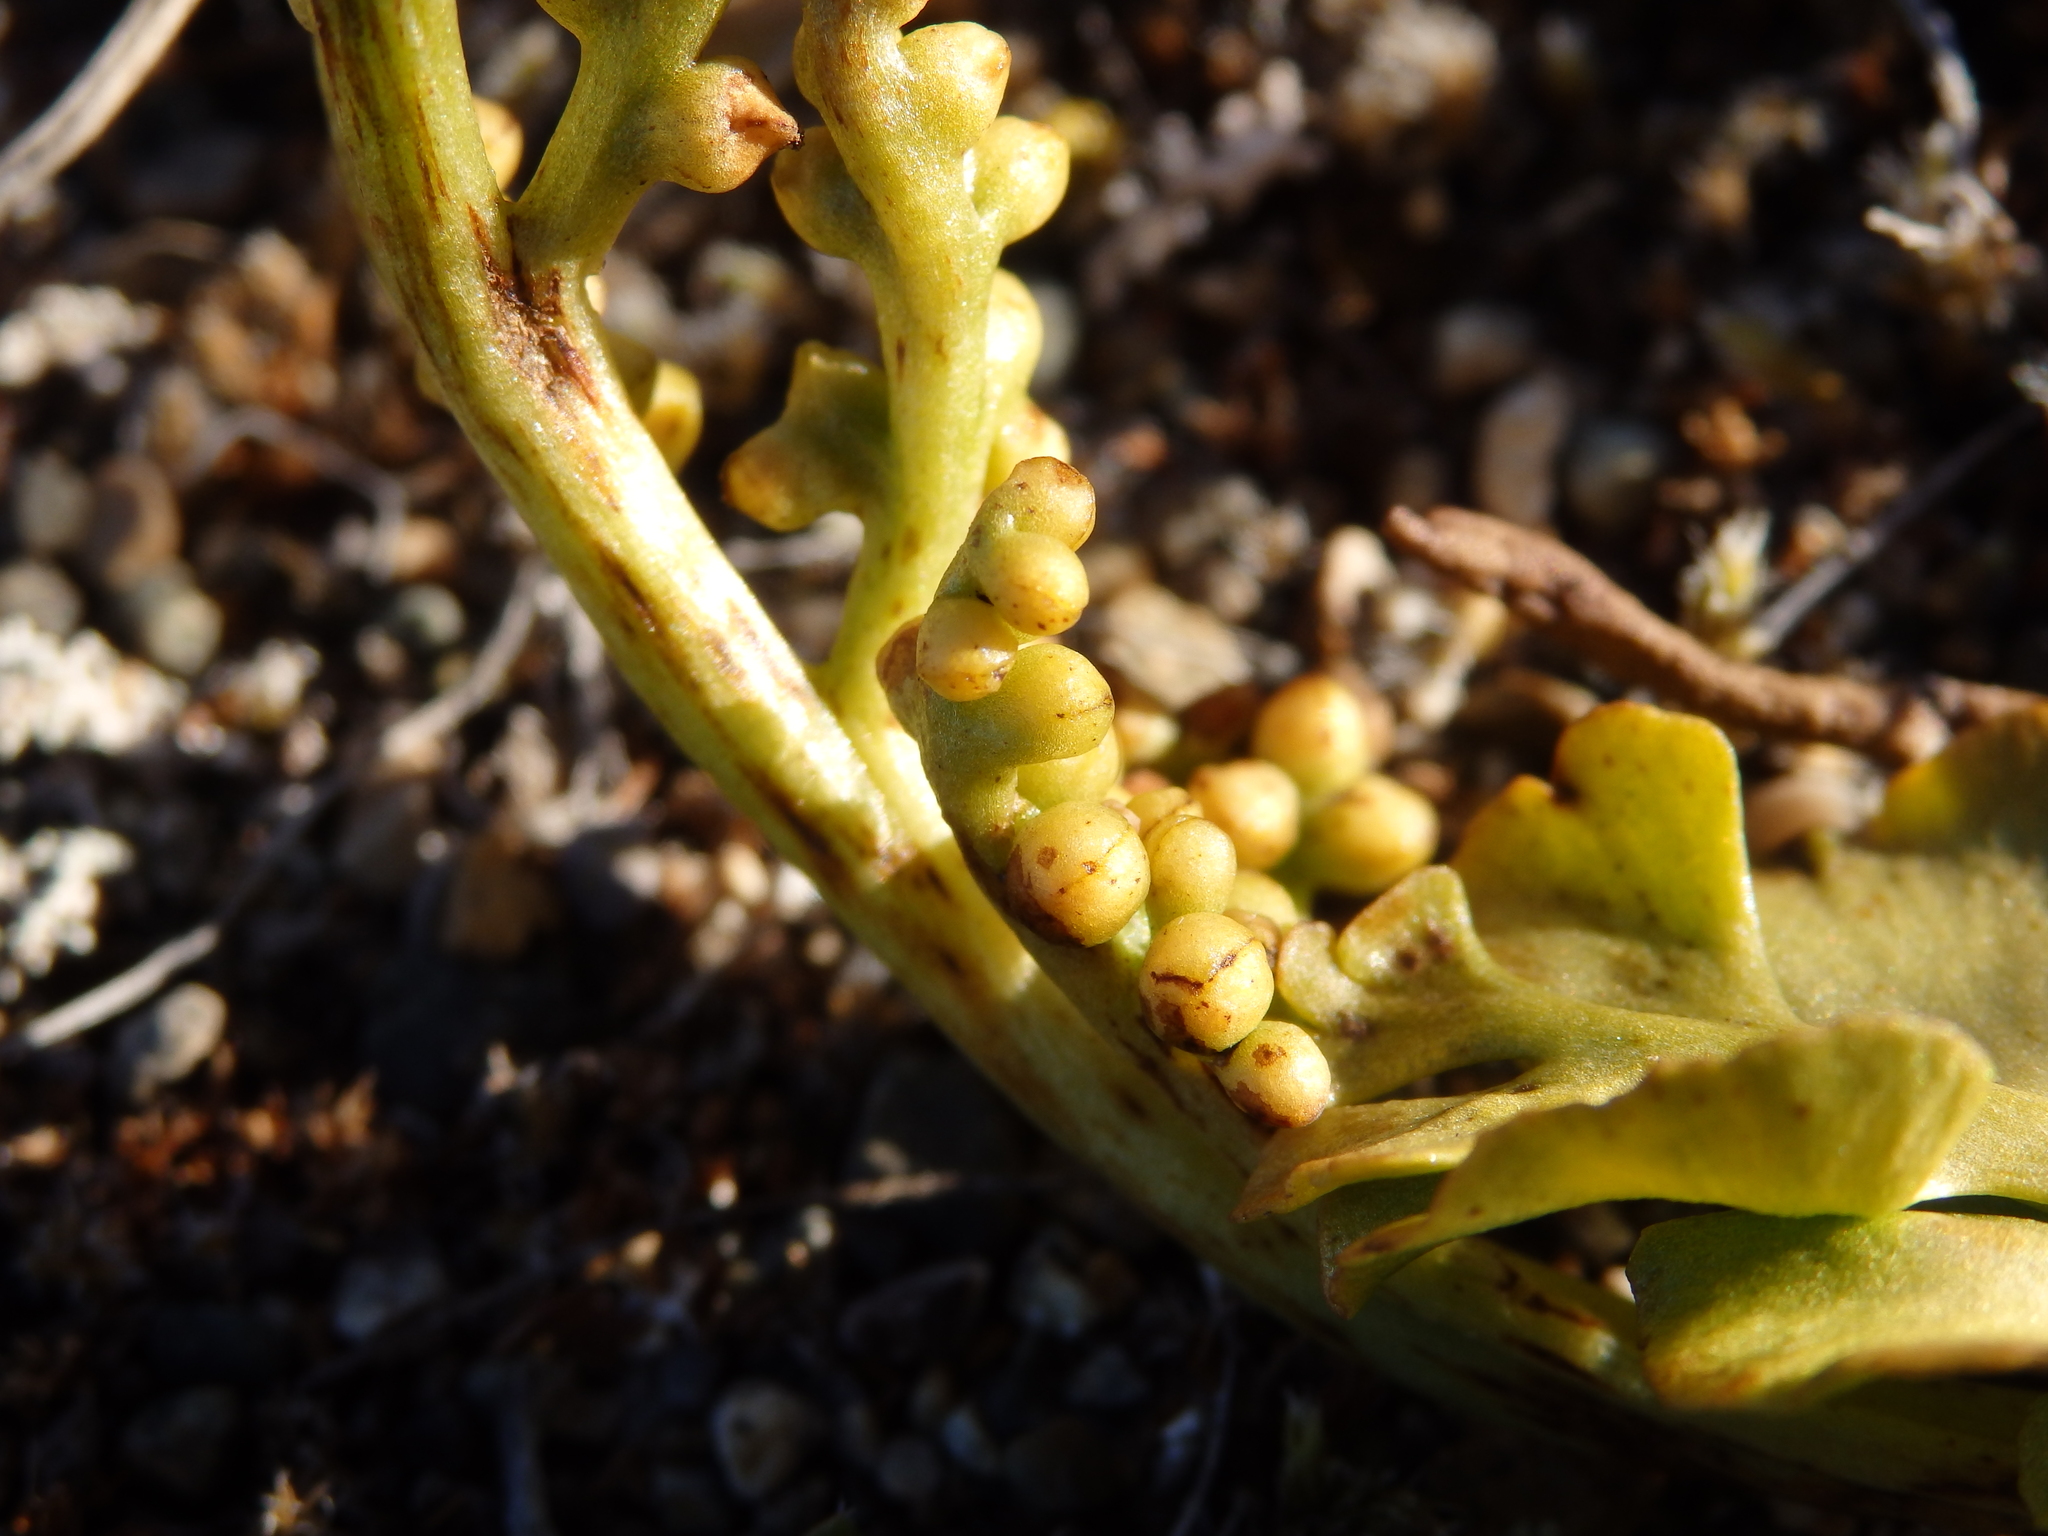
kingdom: Plantae
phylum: Tracheophyta
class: Polypodiopsida
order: Ophioglossales
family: Ophioglossaceae
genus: Botrychium
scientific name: Botrychium lunaria
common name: Moonwort
